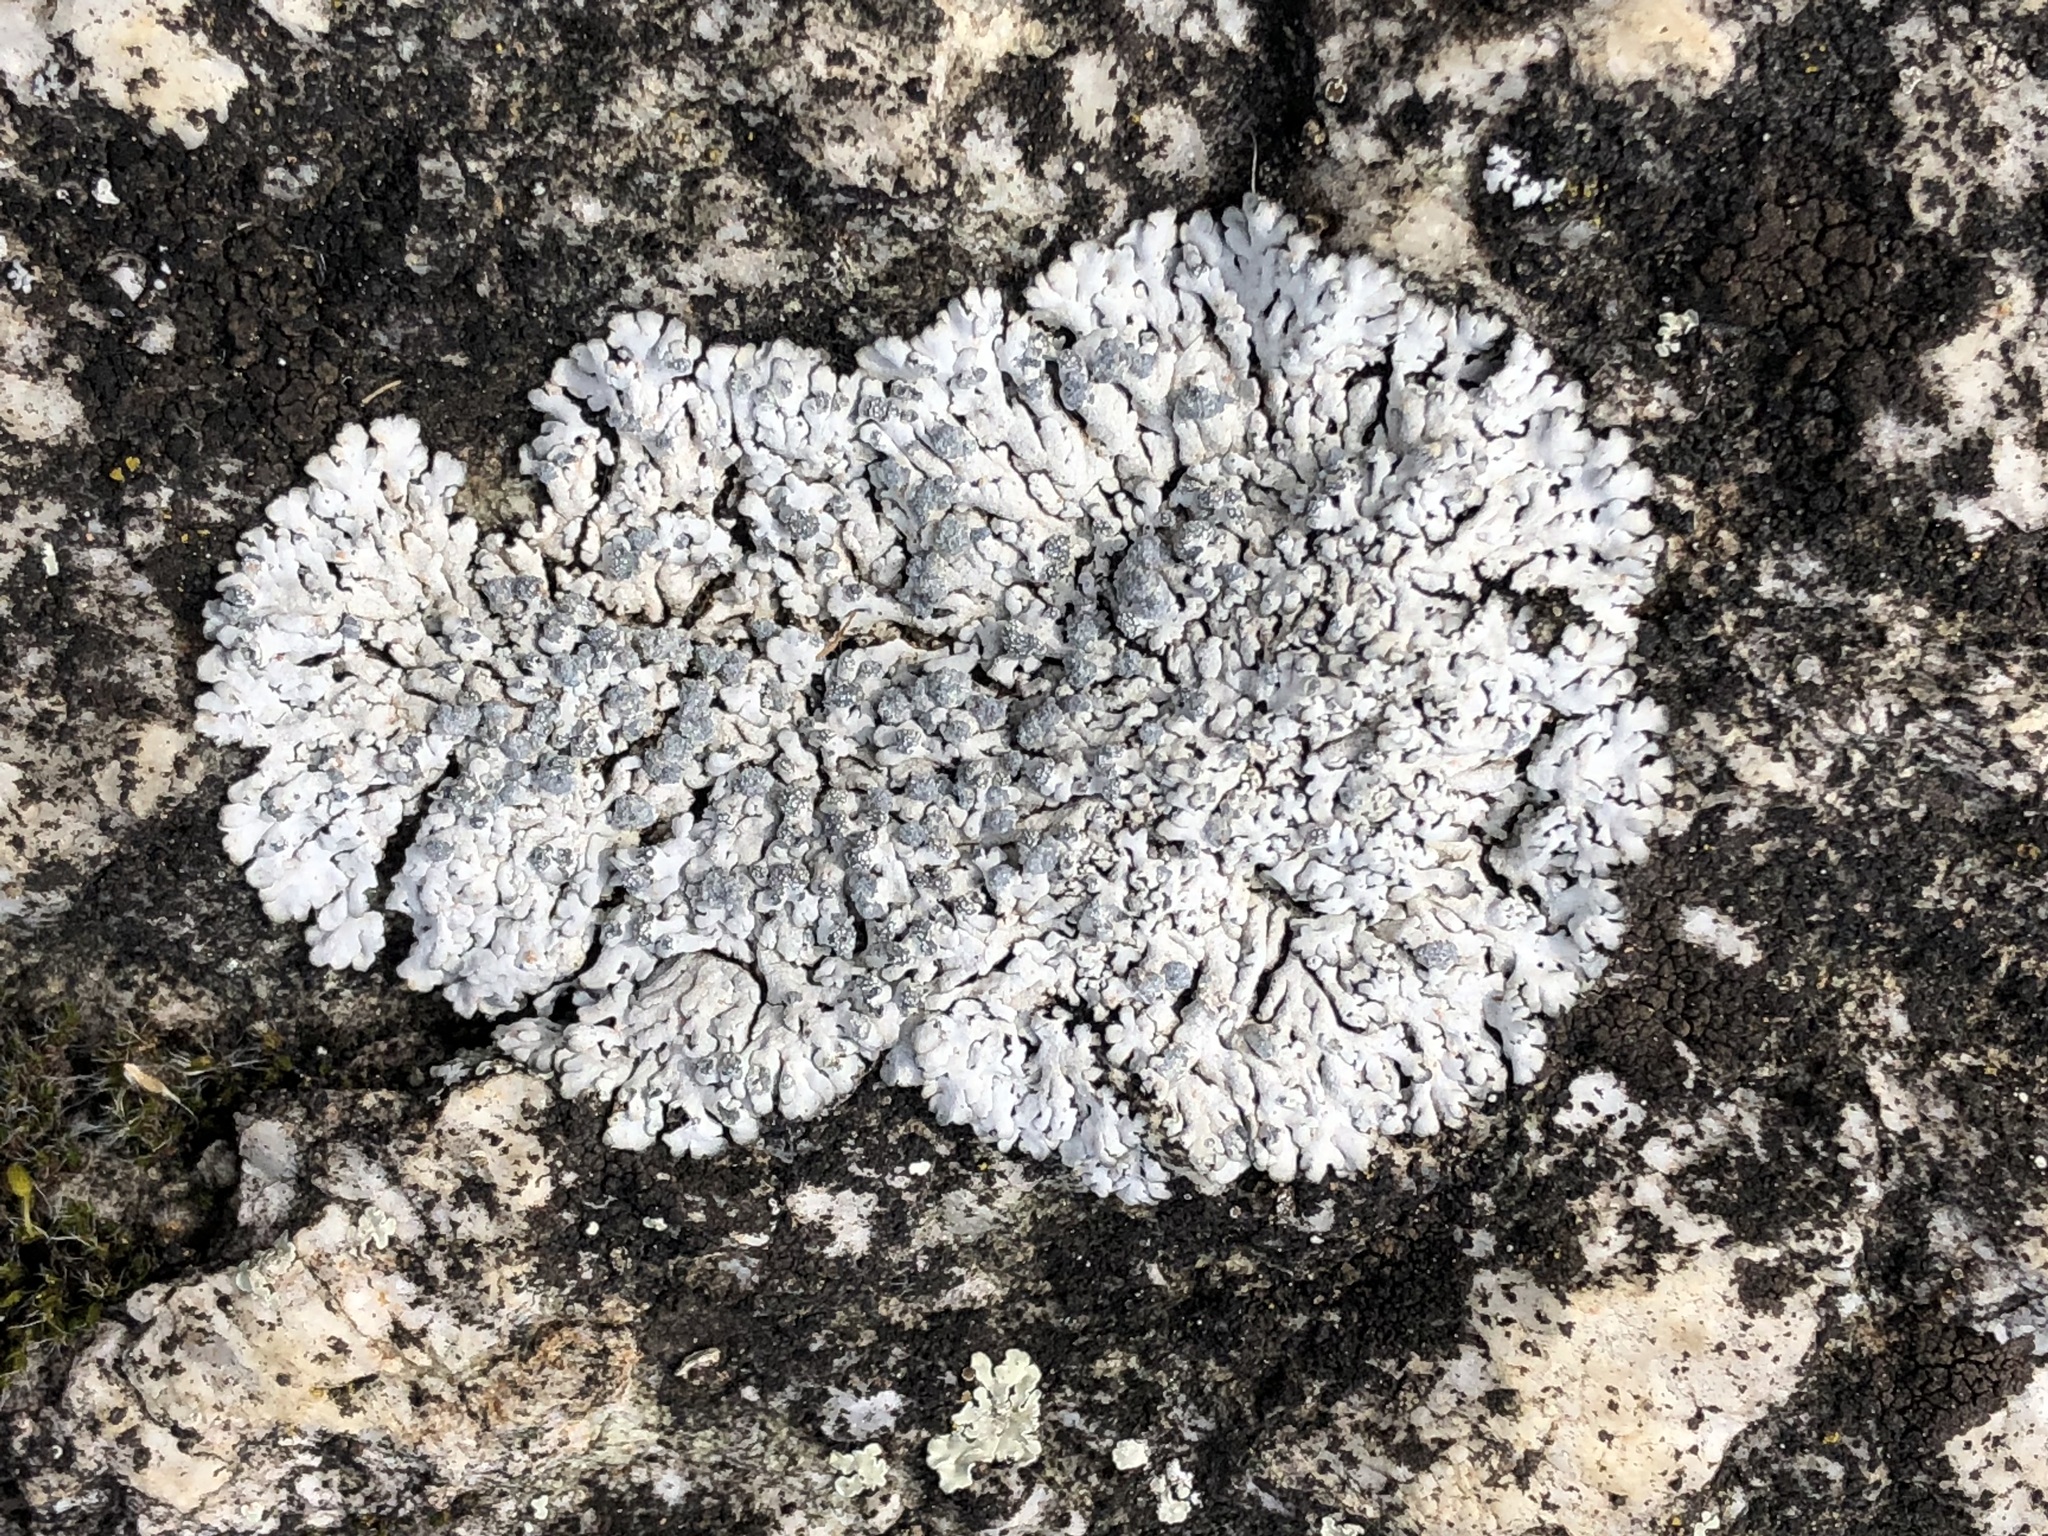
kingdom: Fungi
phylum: Ascomycota
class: Lecanoromycetes
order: Caliciales
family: Physciaceae
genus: Physcia
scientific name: Physcia caesia
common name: Blue-gray rosette lichen
